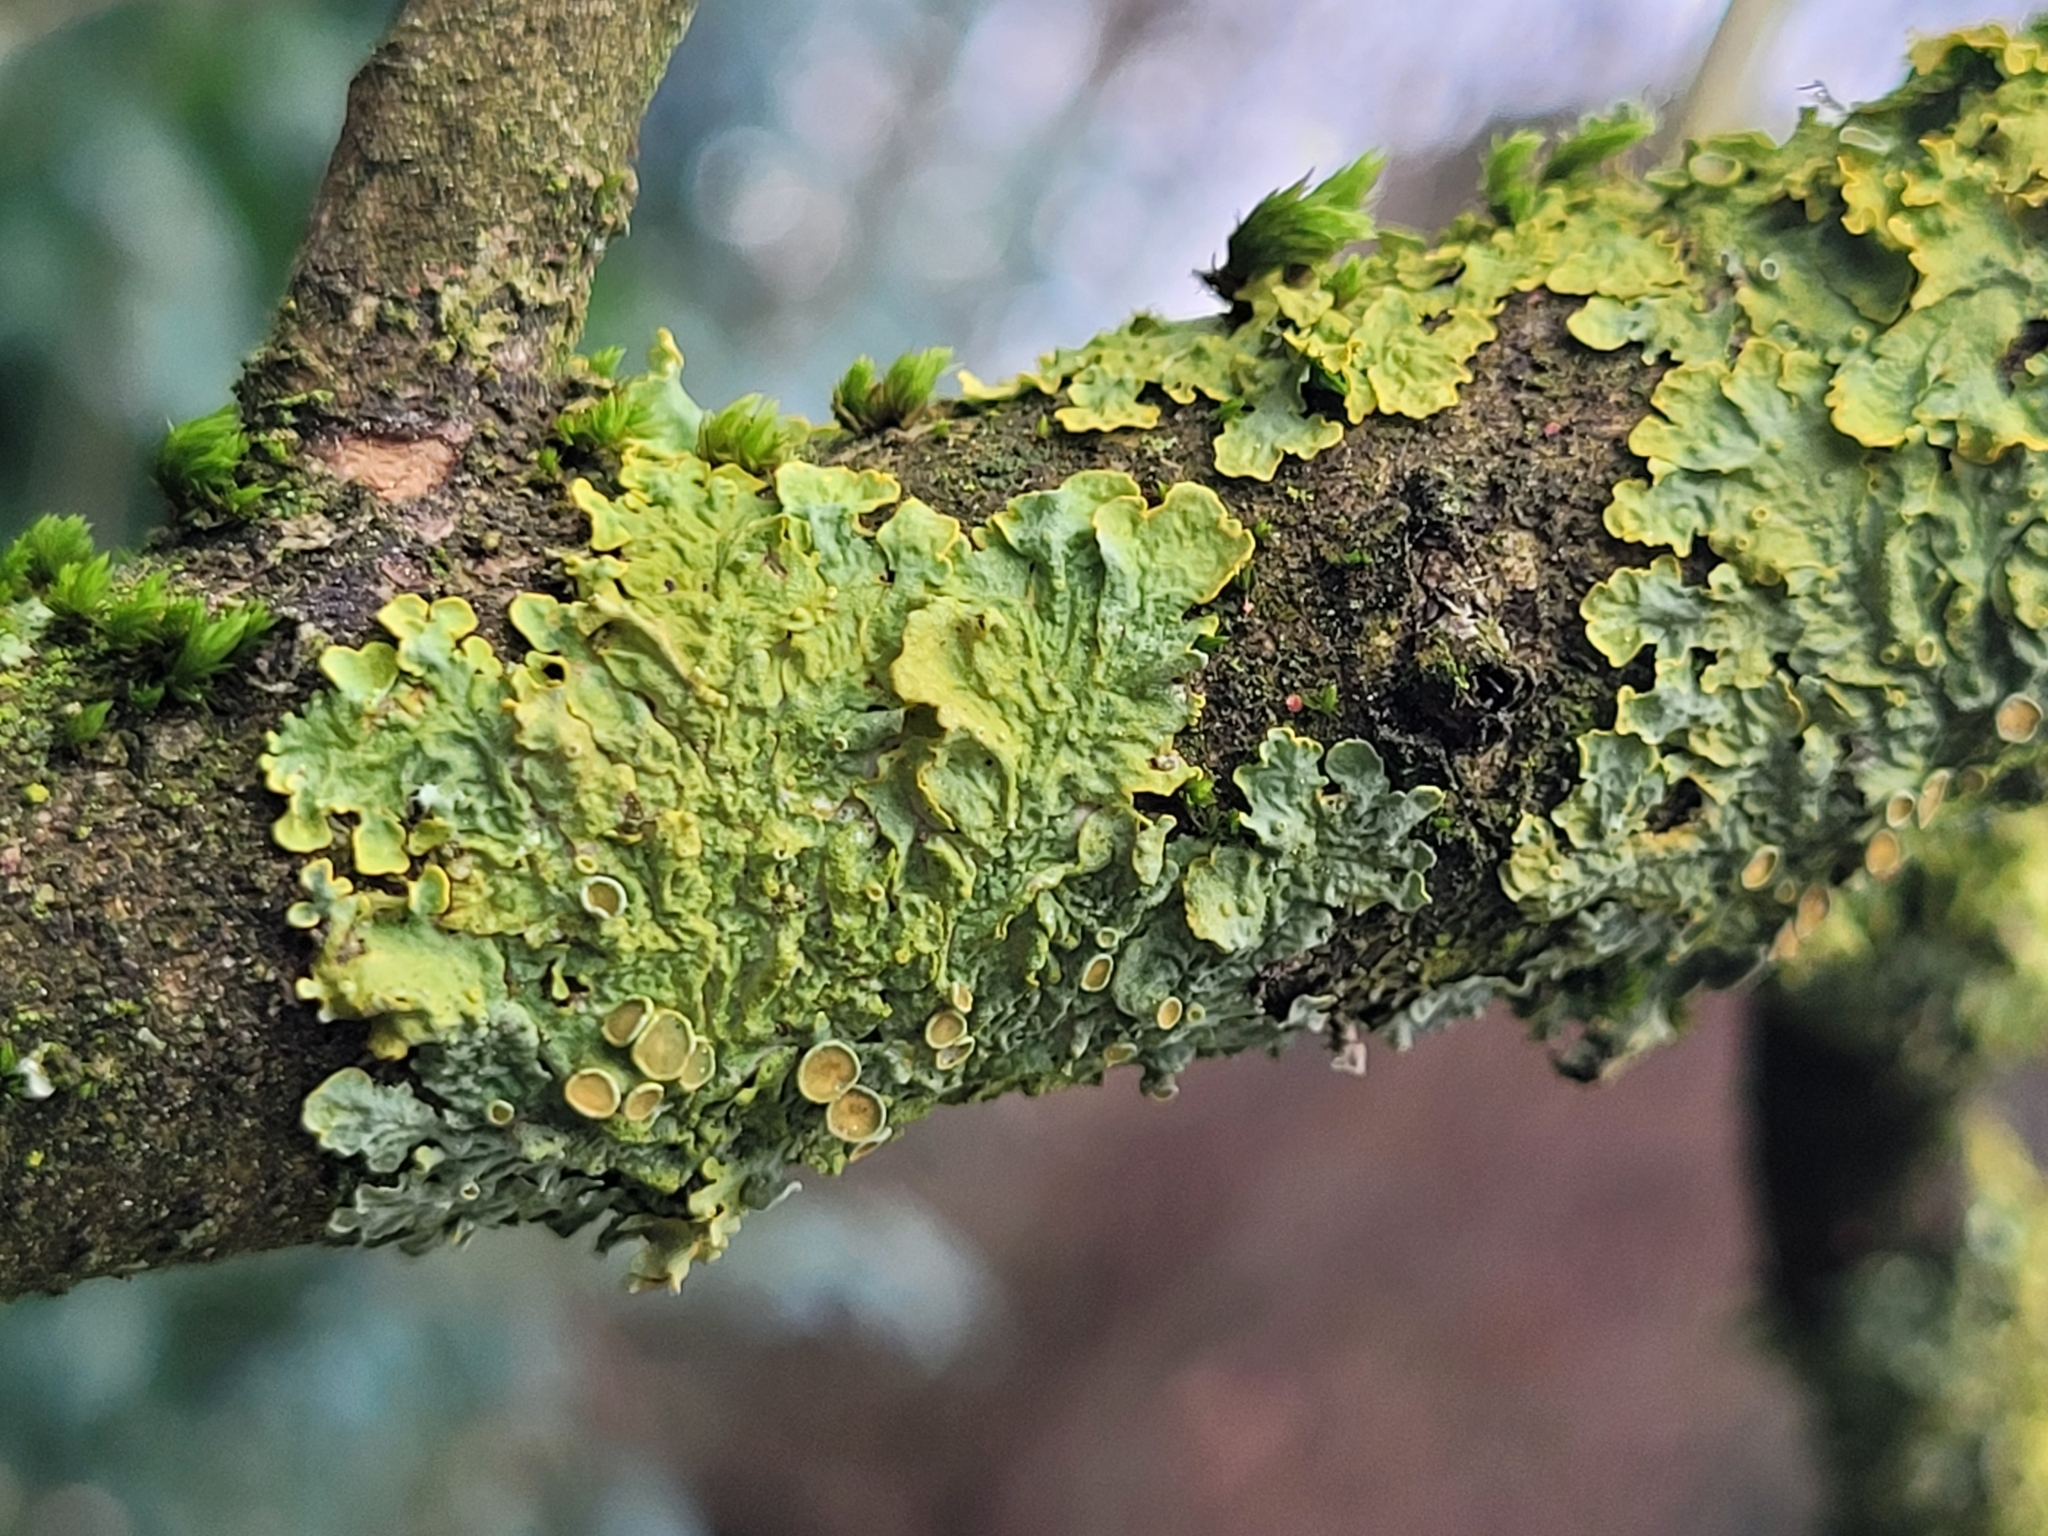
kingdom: Fungi
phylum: Ascomycota
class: Lecanoromycetes
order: Teloschistales
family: Teloschistaceae
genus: Xanthoria
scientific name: Xanthoria parietina
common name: Common orange lichen
